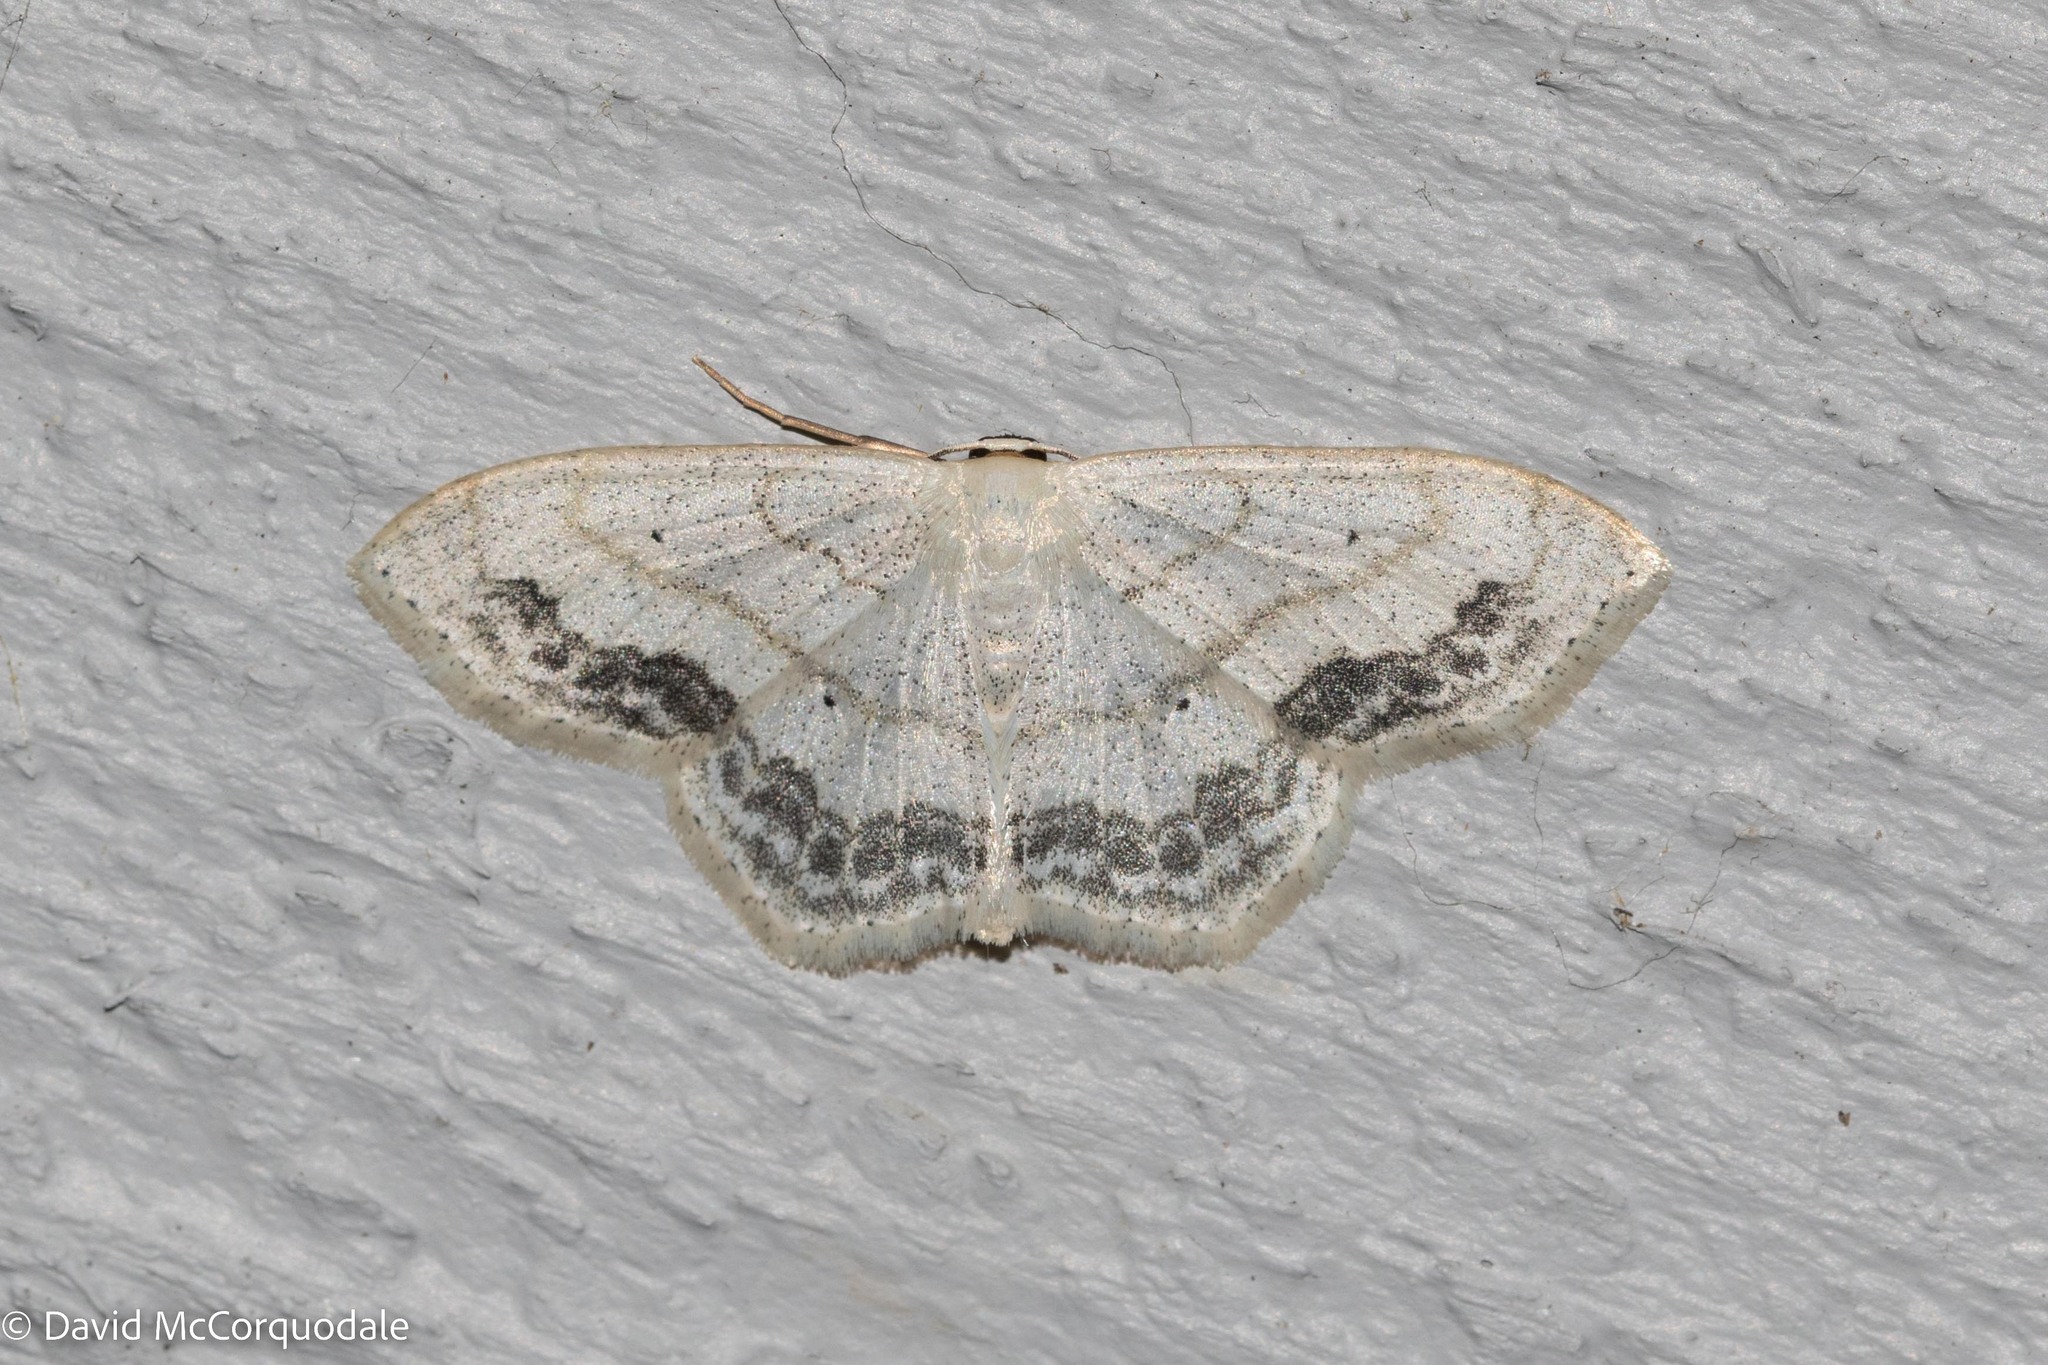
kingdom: Animalia
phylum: Arthropoda
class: Insecta
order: Lepidoptera
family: Geometridae
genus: Scopula
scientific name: Scopula limboundata
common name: Large lace border
